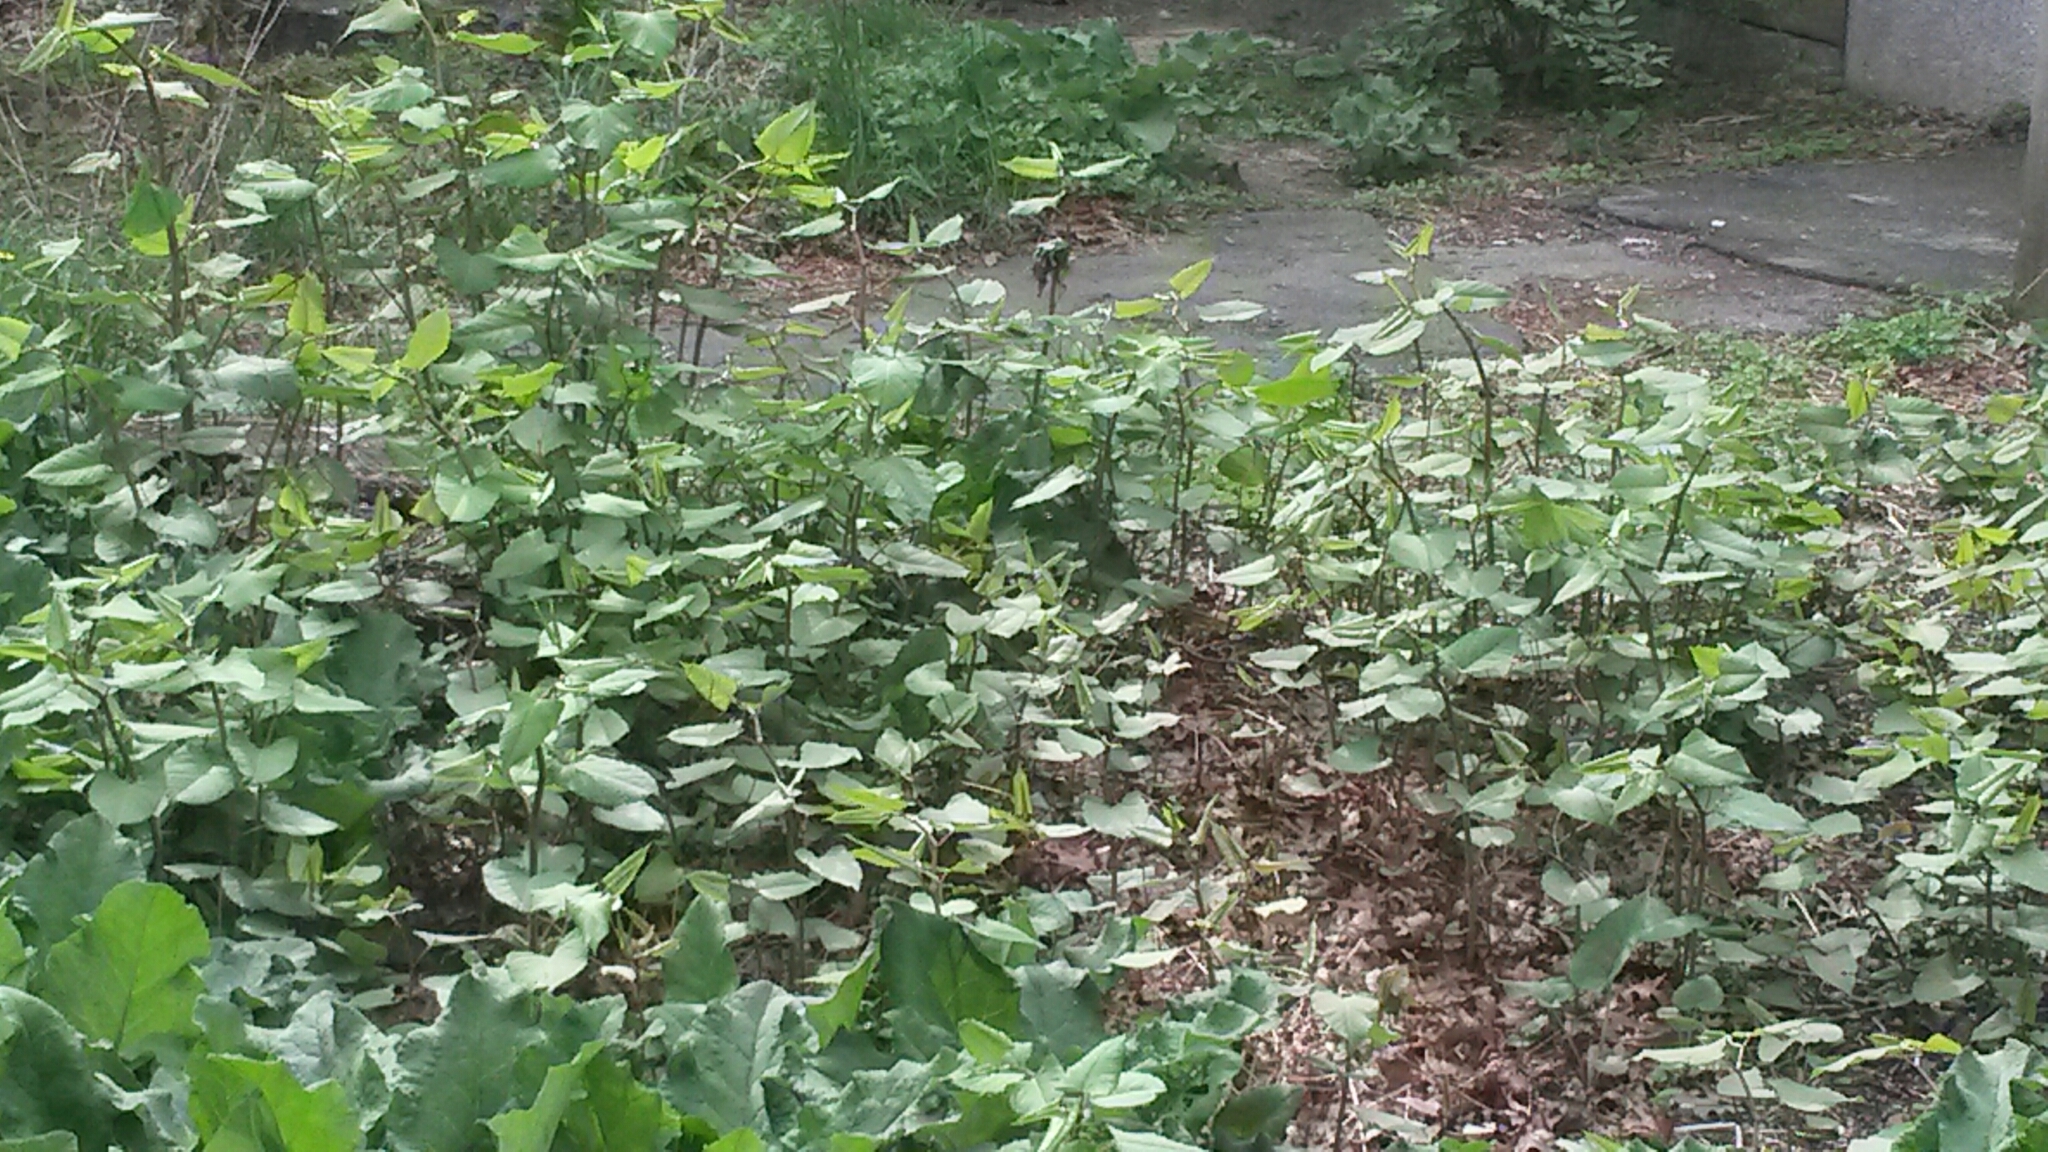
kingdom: Plantae
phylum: Tracheophyta
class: Magnoliopsida
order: Caryophyllales
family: Polygonaceae
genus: Reynoutria
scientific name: Reynoutria japonica
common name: Japanese knotweed
